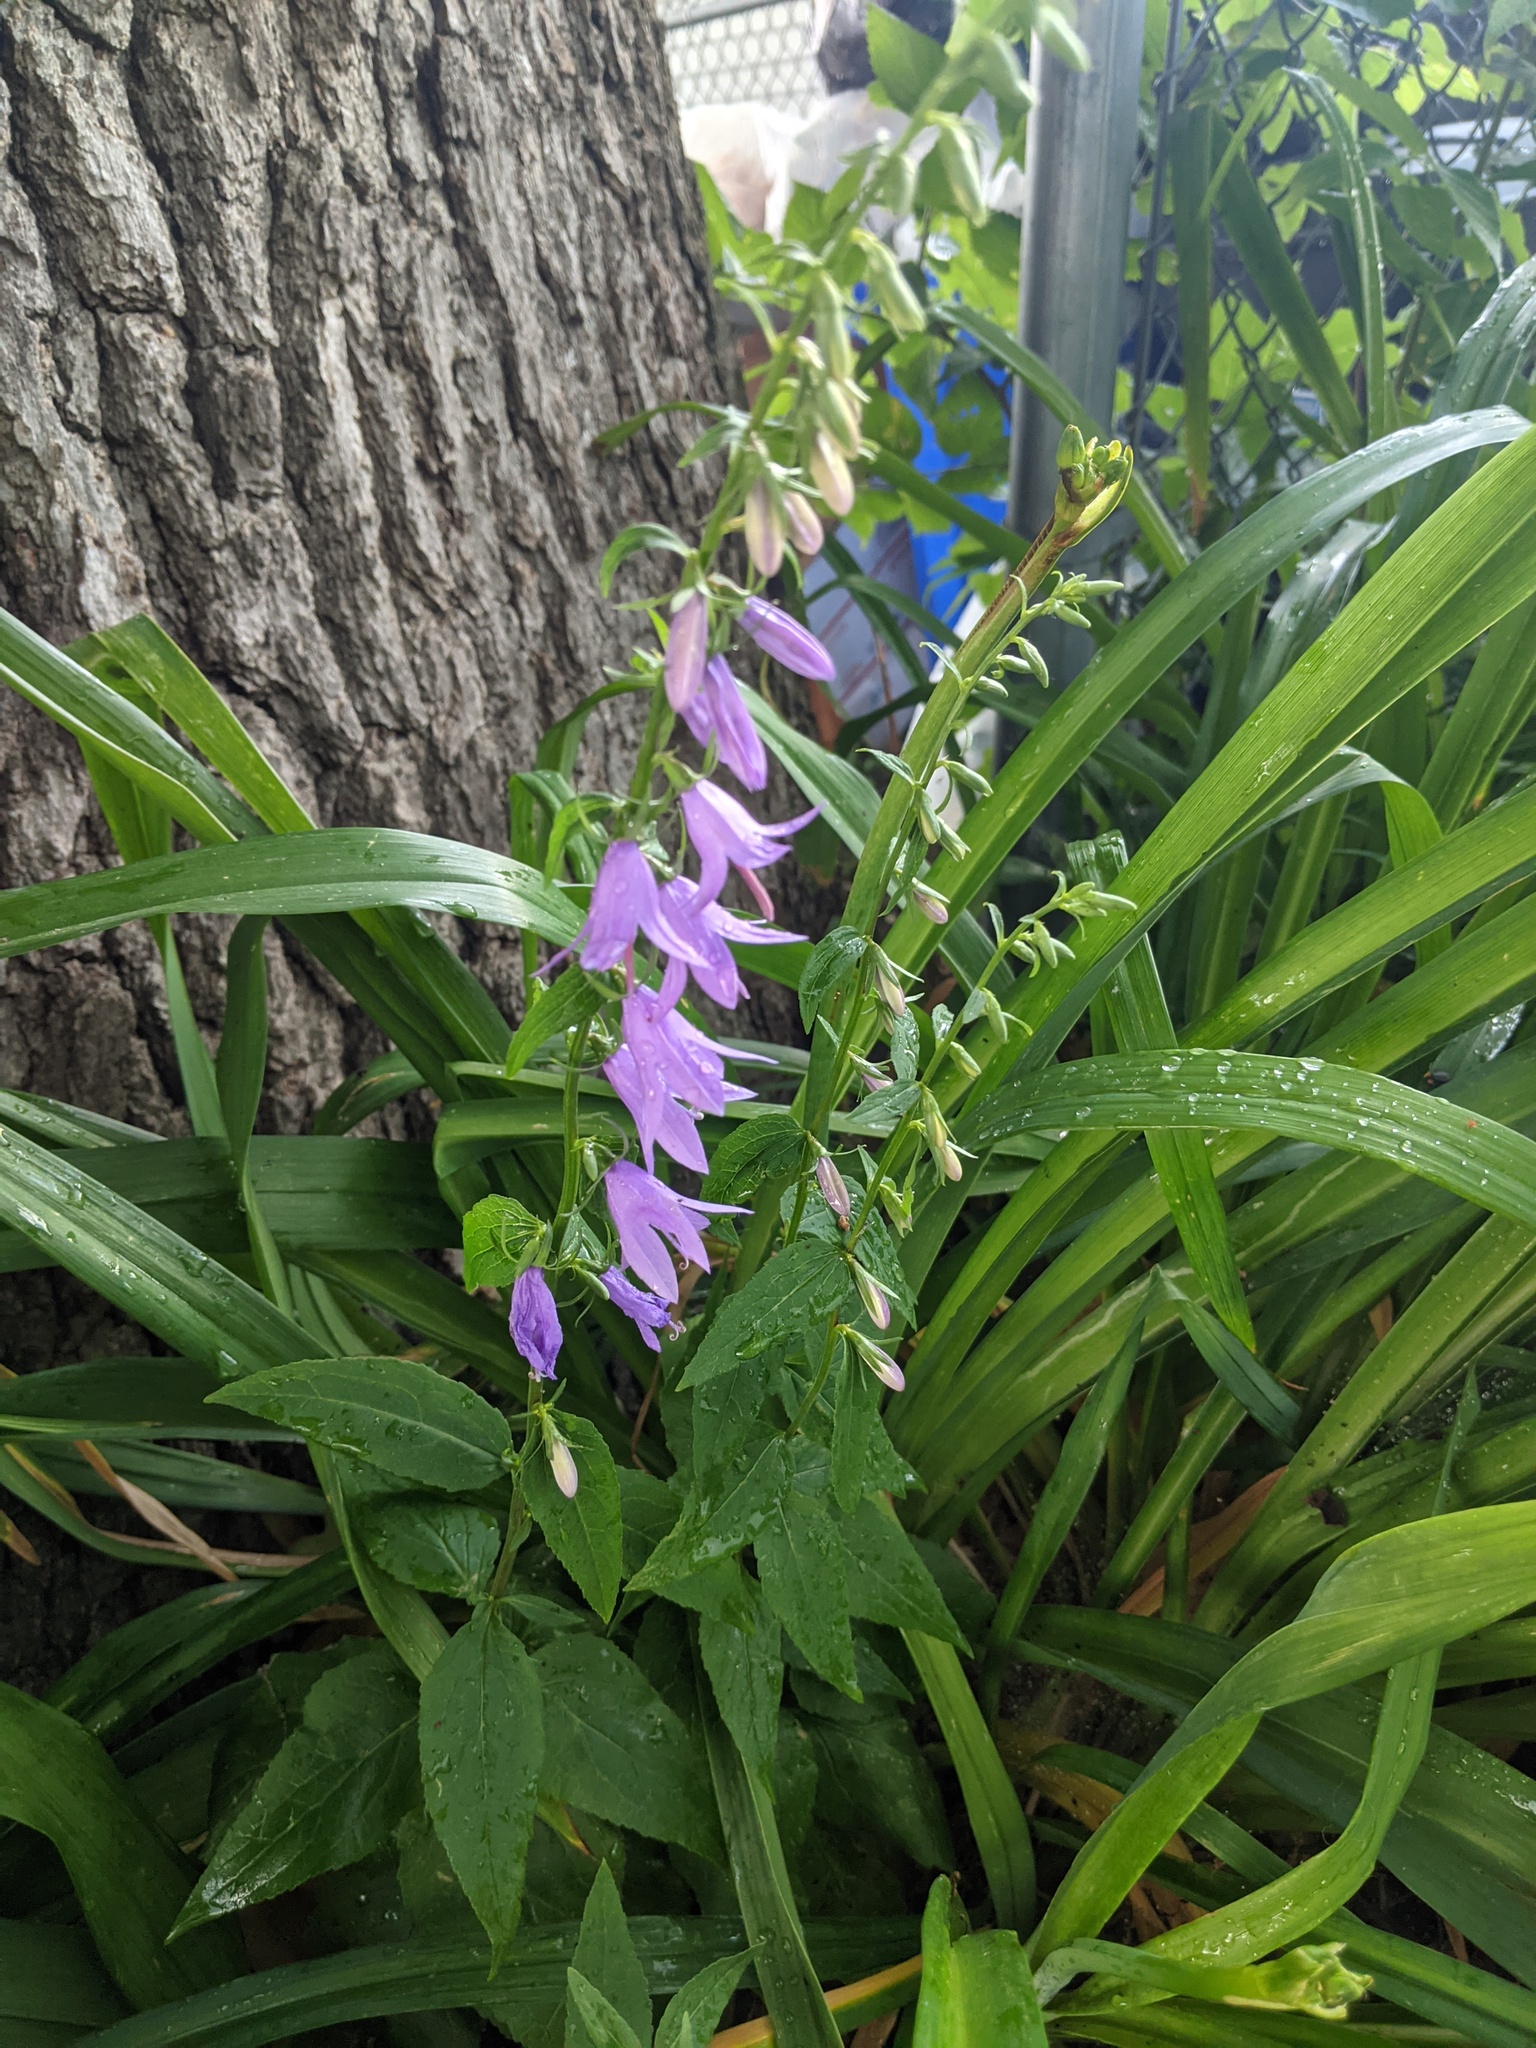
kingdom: Plantae
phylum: Tracheophyta
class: Magnoliopsida
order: Asterales
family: Campanulaceae
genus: Campanula
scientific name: Campanula rapunculoides
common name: Creeping bellflower
